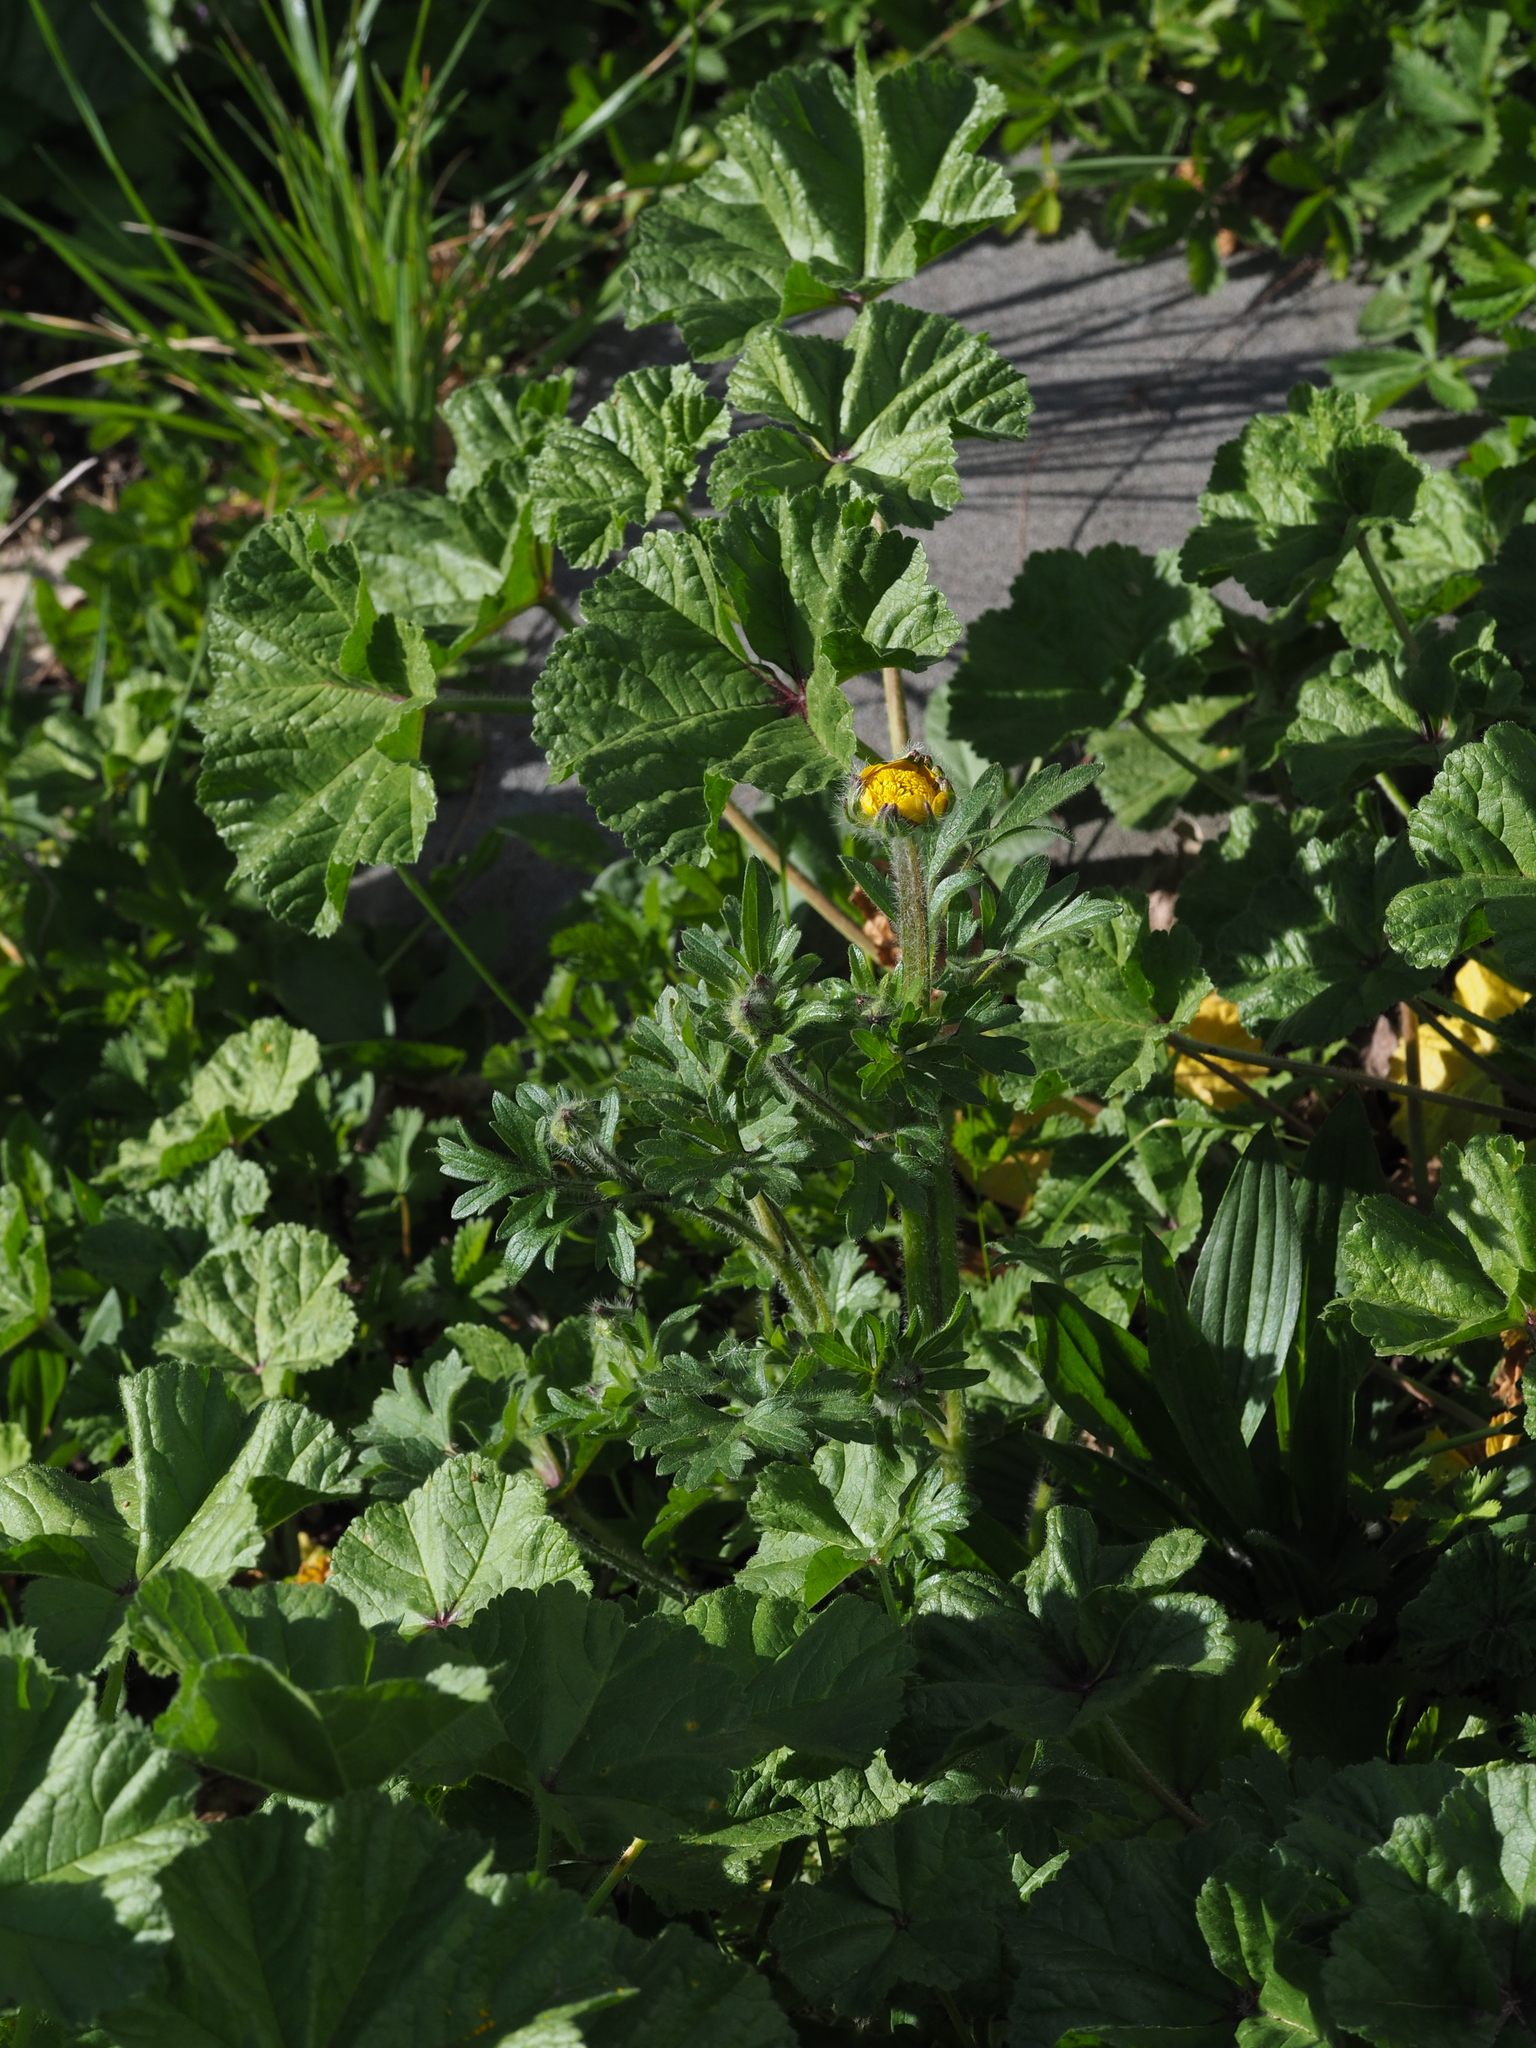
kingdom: Plantae
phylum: Tracheophyta
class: Magnoliopsida
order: Ranunculales
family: Ranunculaceae
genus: Ranunculus
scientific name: Ranunculus bulbosus
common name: Bulbous buttercup
